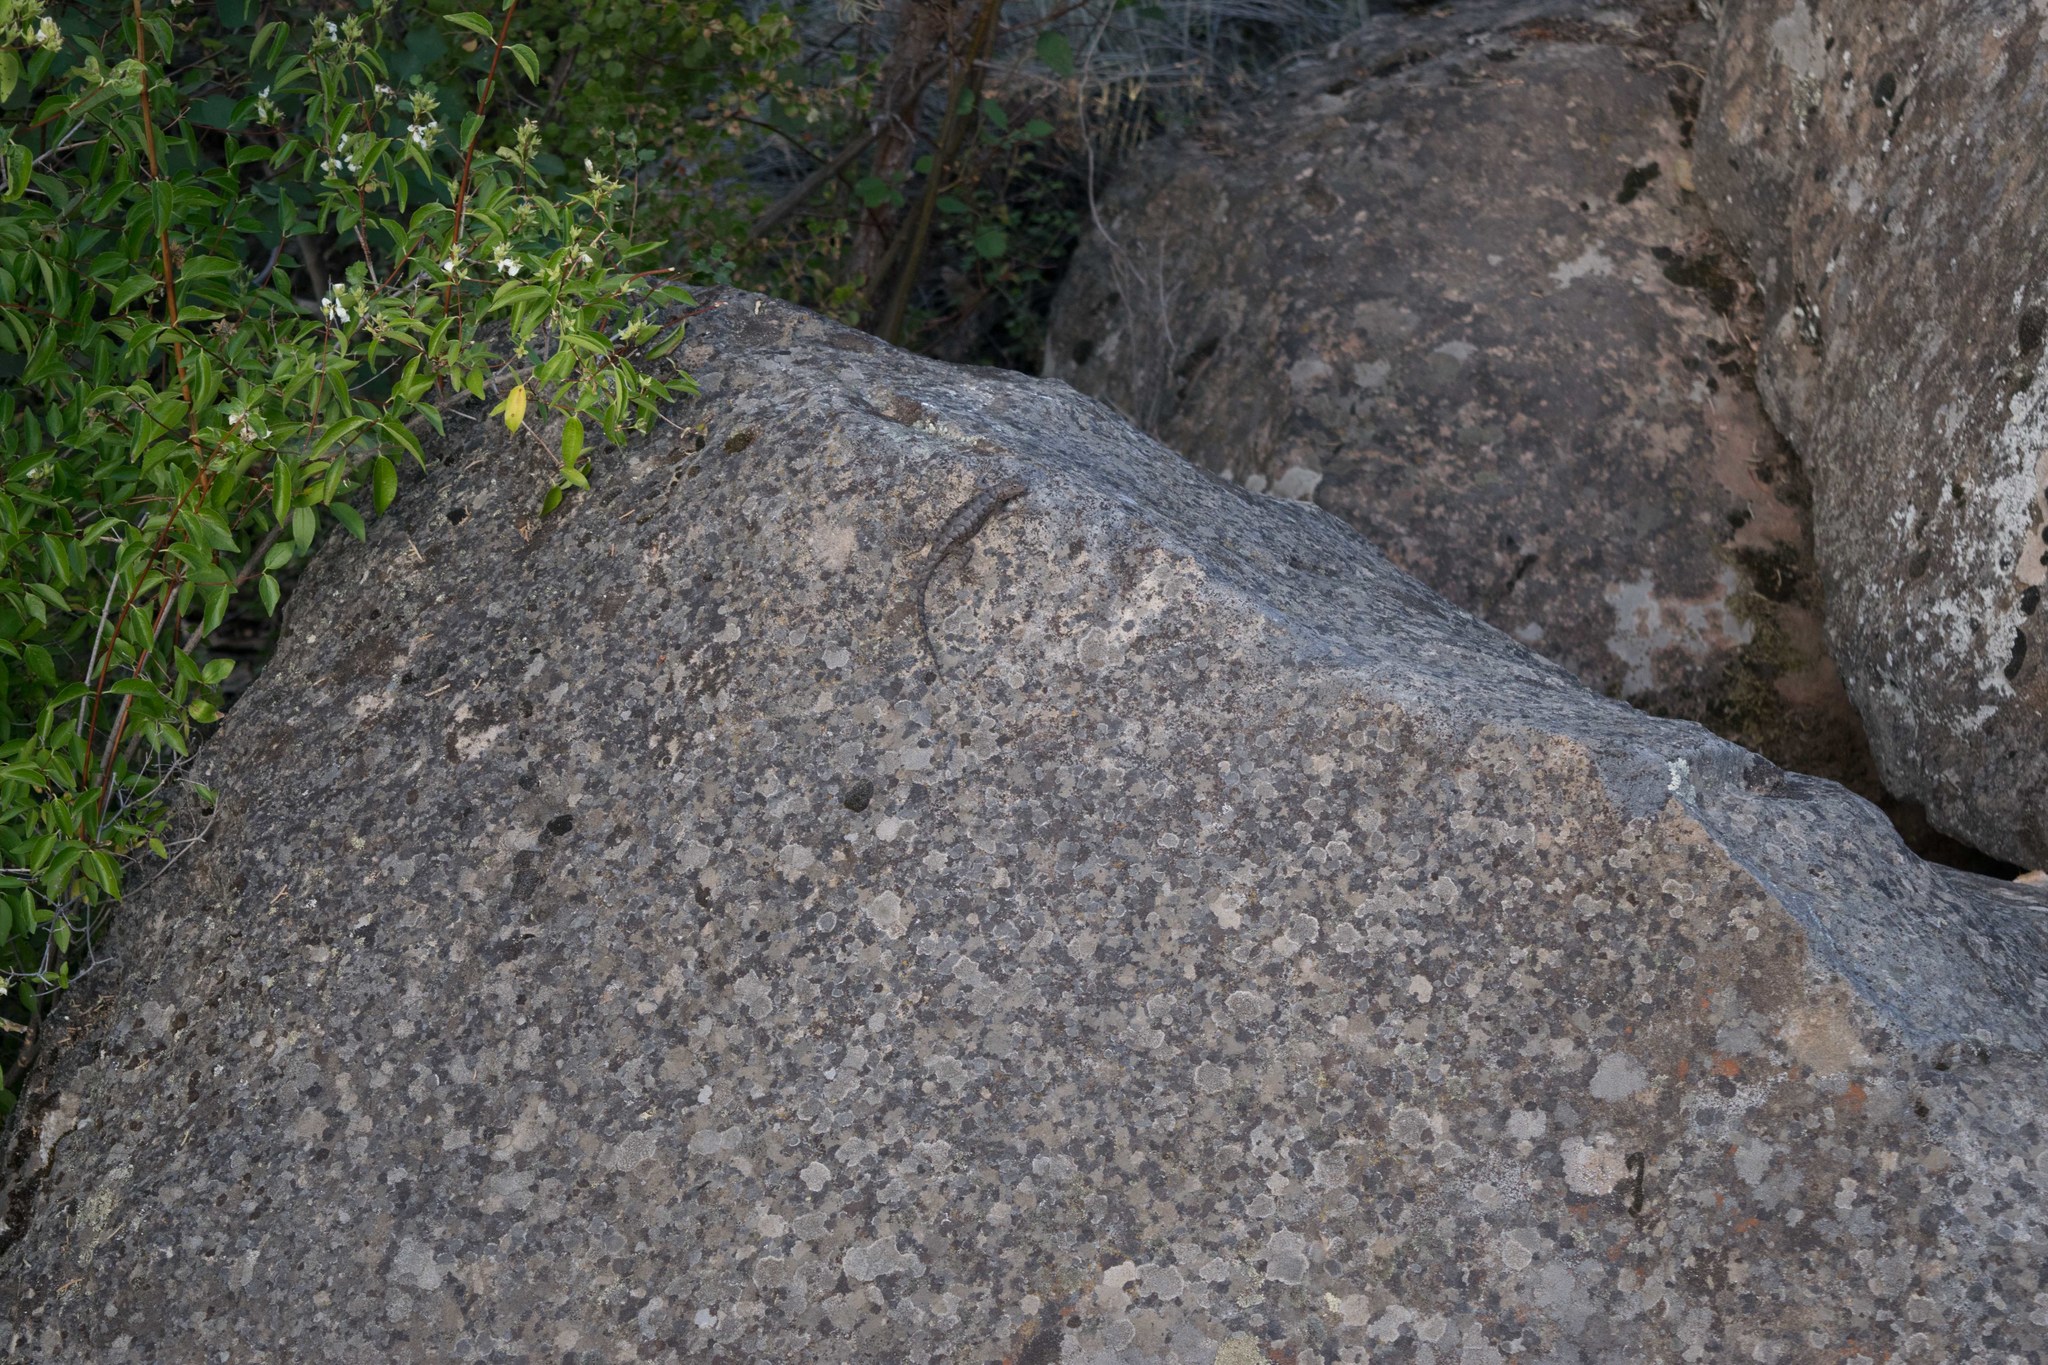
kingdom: Animalia
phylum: Chordata
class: Squamata
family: Phrynosomatidae
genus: Sceloporus
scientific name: Sceloporus occidentalis
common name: Western fence lizard
